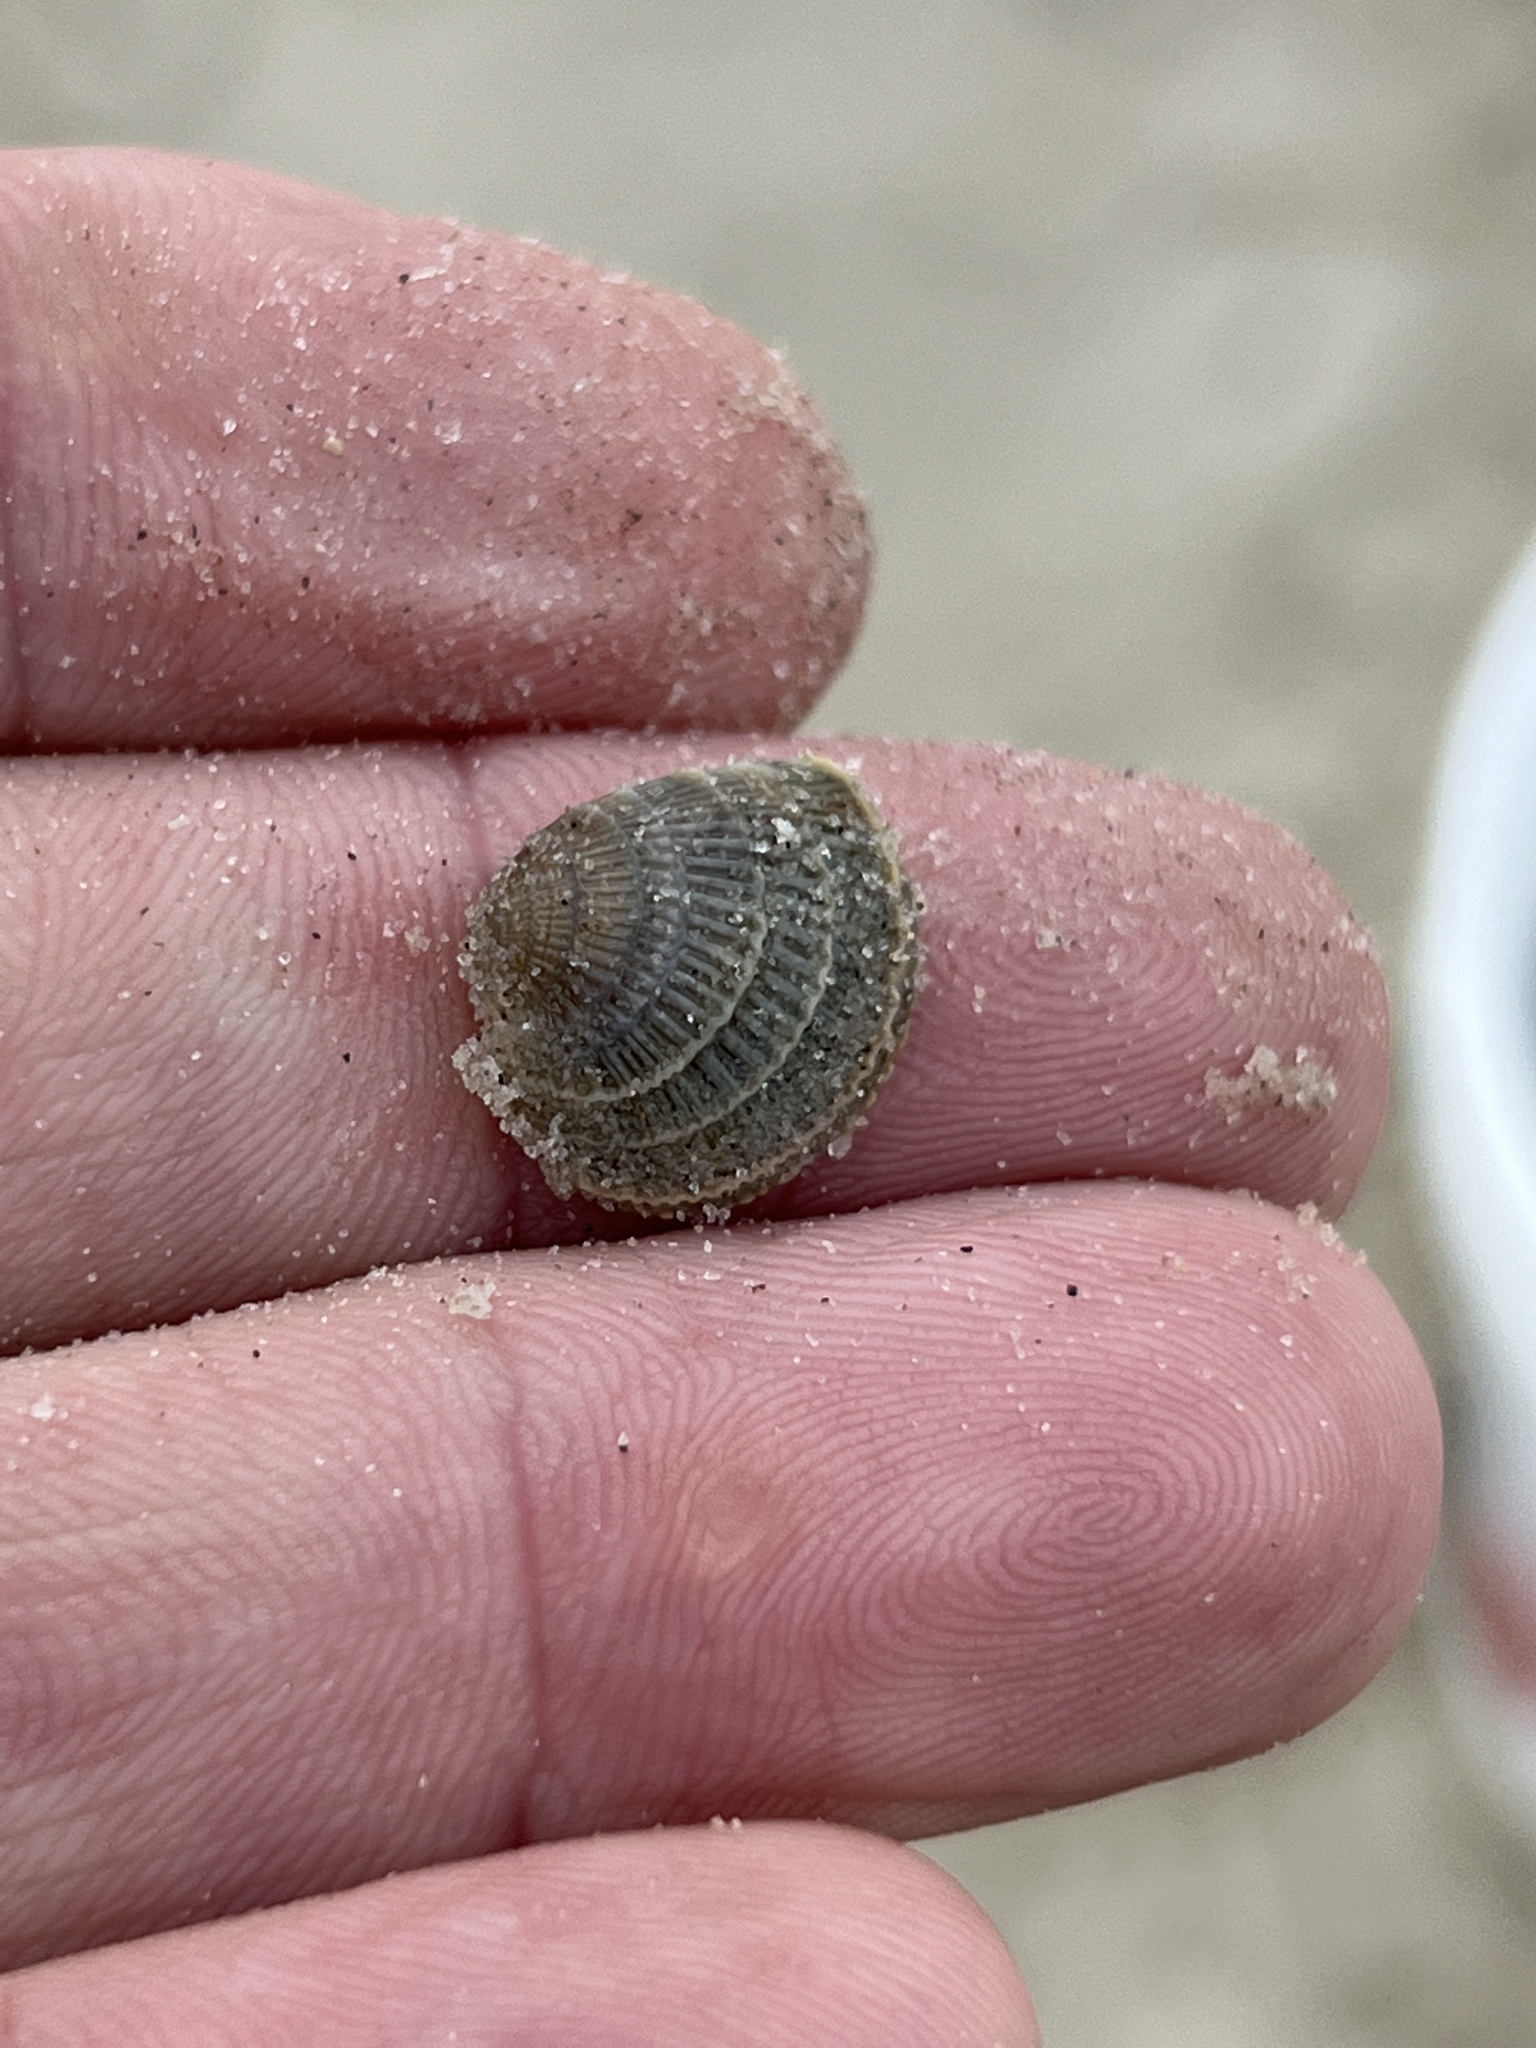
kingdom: Animalia
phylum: Mollusca
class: Bivalvia
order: Venerida
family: Veneridae
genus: Chione
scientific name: Chione elevata
